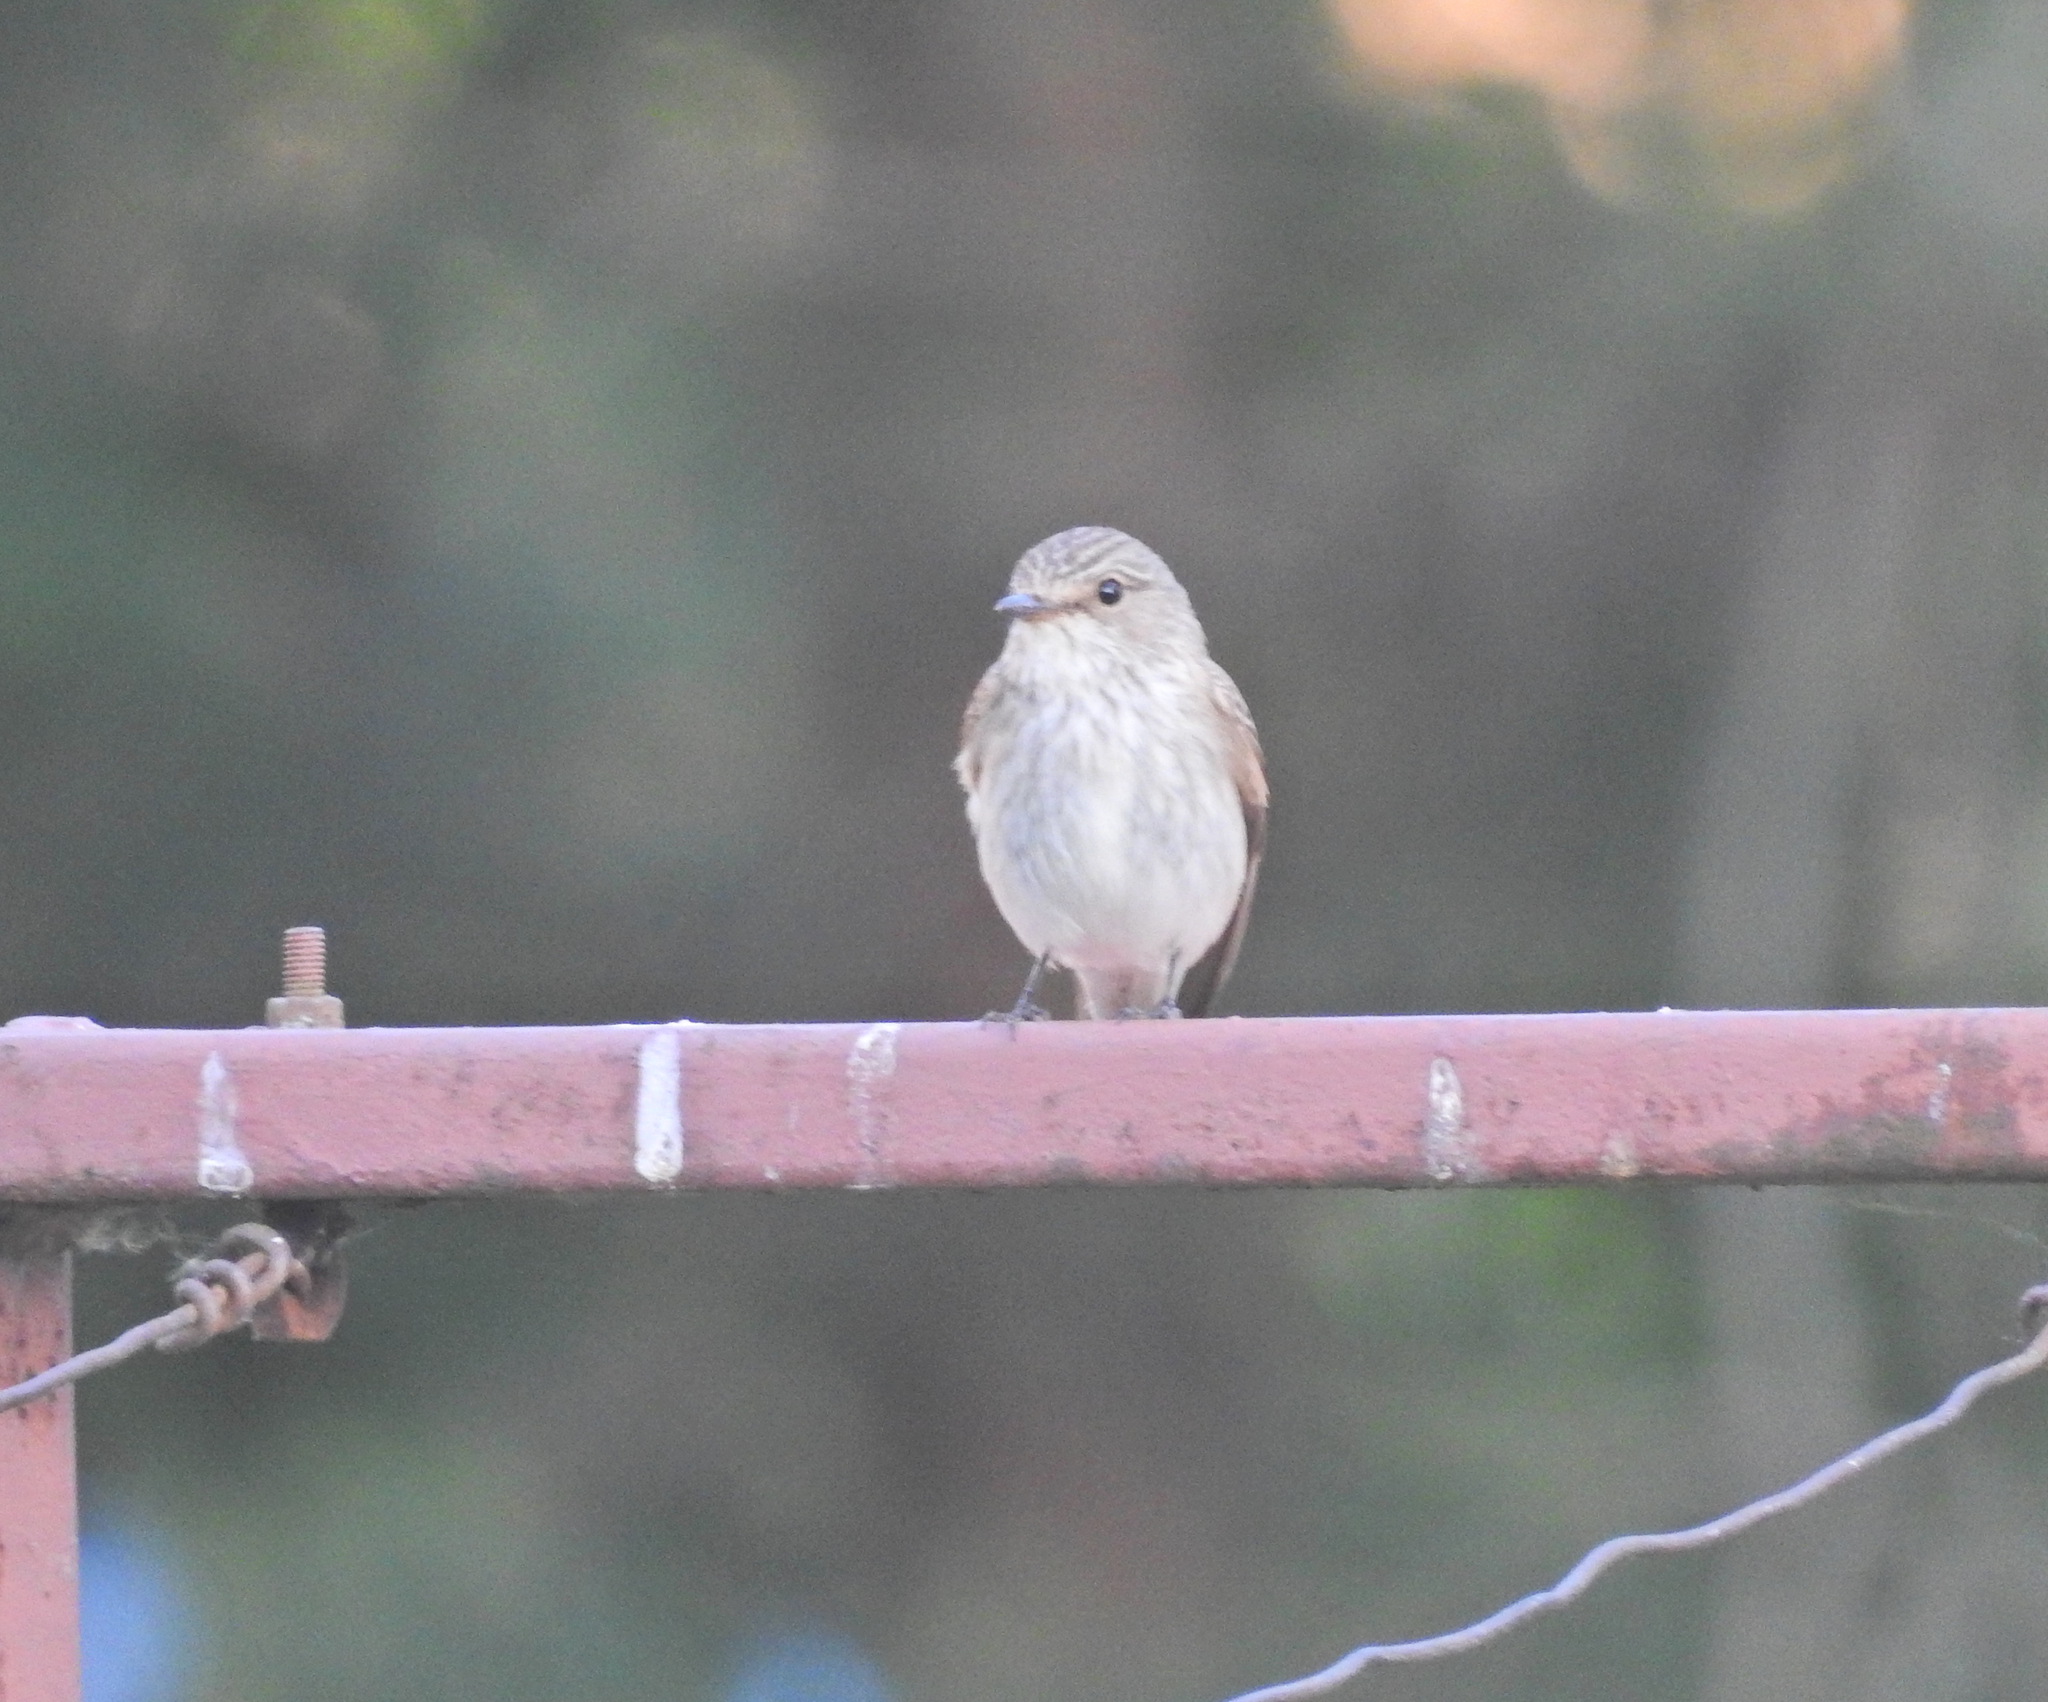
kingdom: Animalia
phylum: Chordata
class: Aves
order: Passeriformes
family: Muscicapidae
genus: Muscicapa
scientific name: Muscicapa striata
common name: Spotted flycatcher
